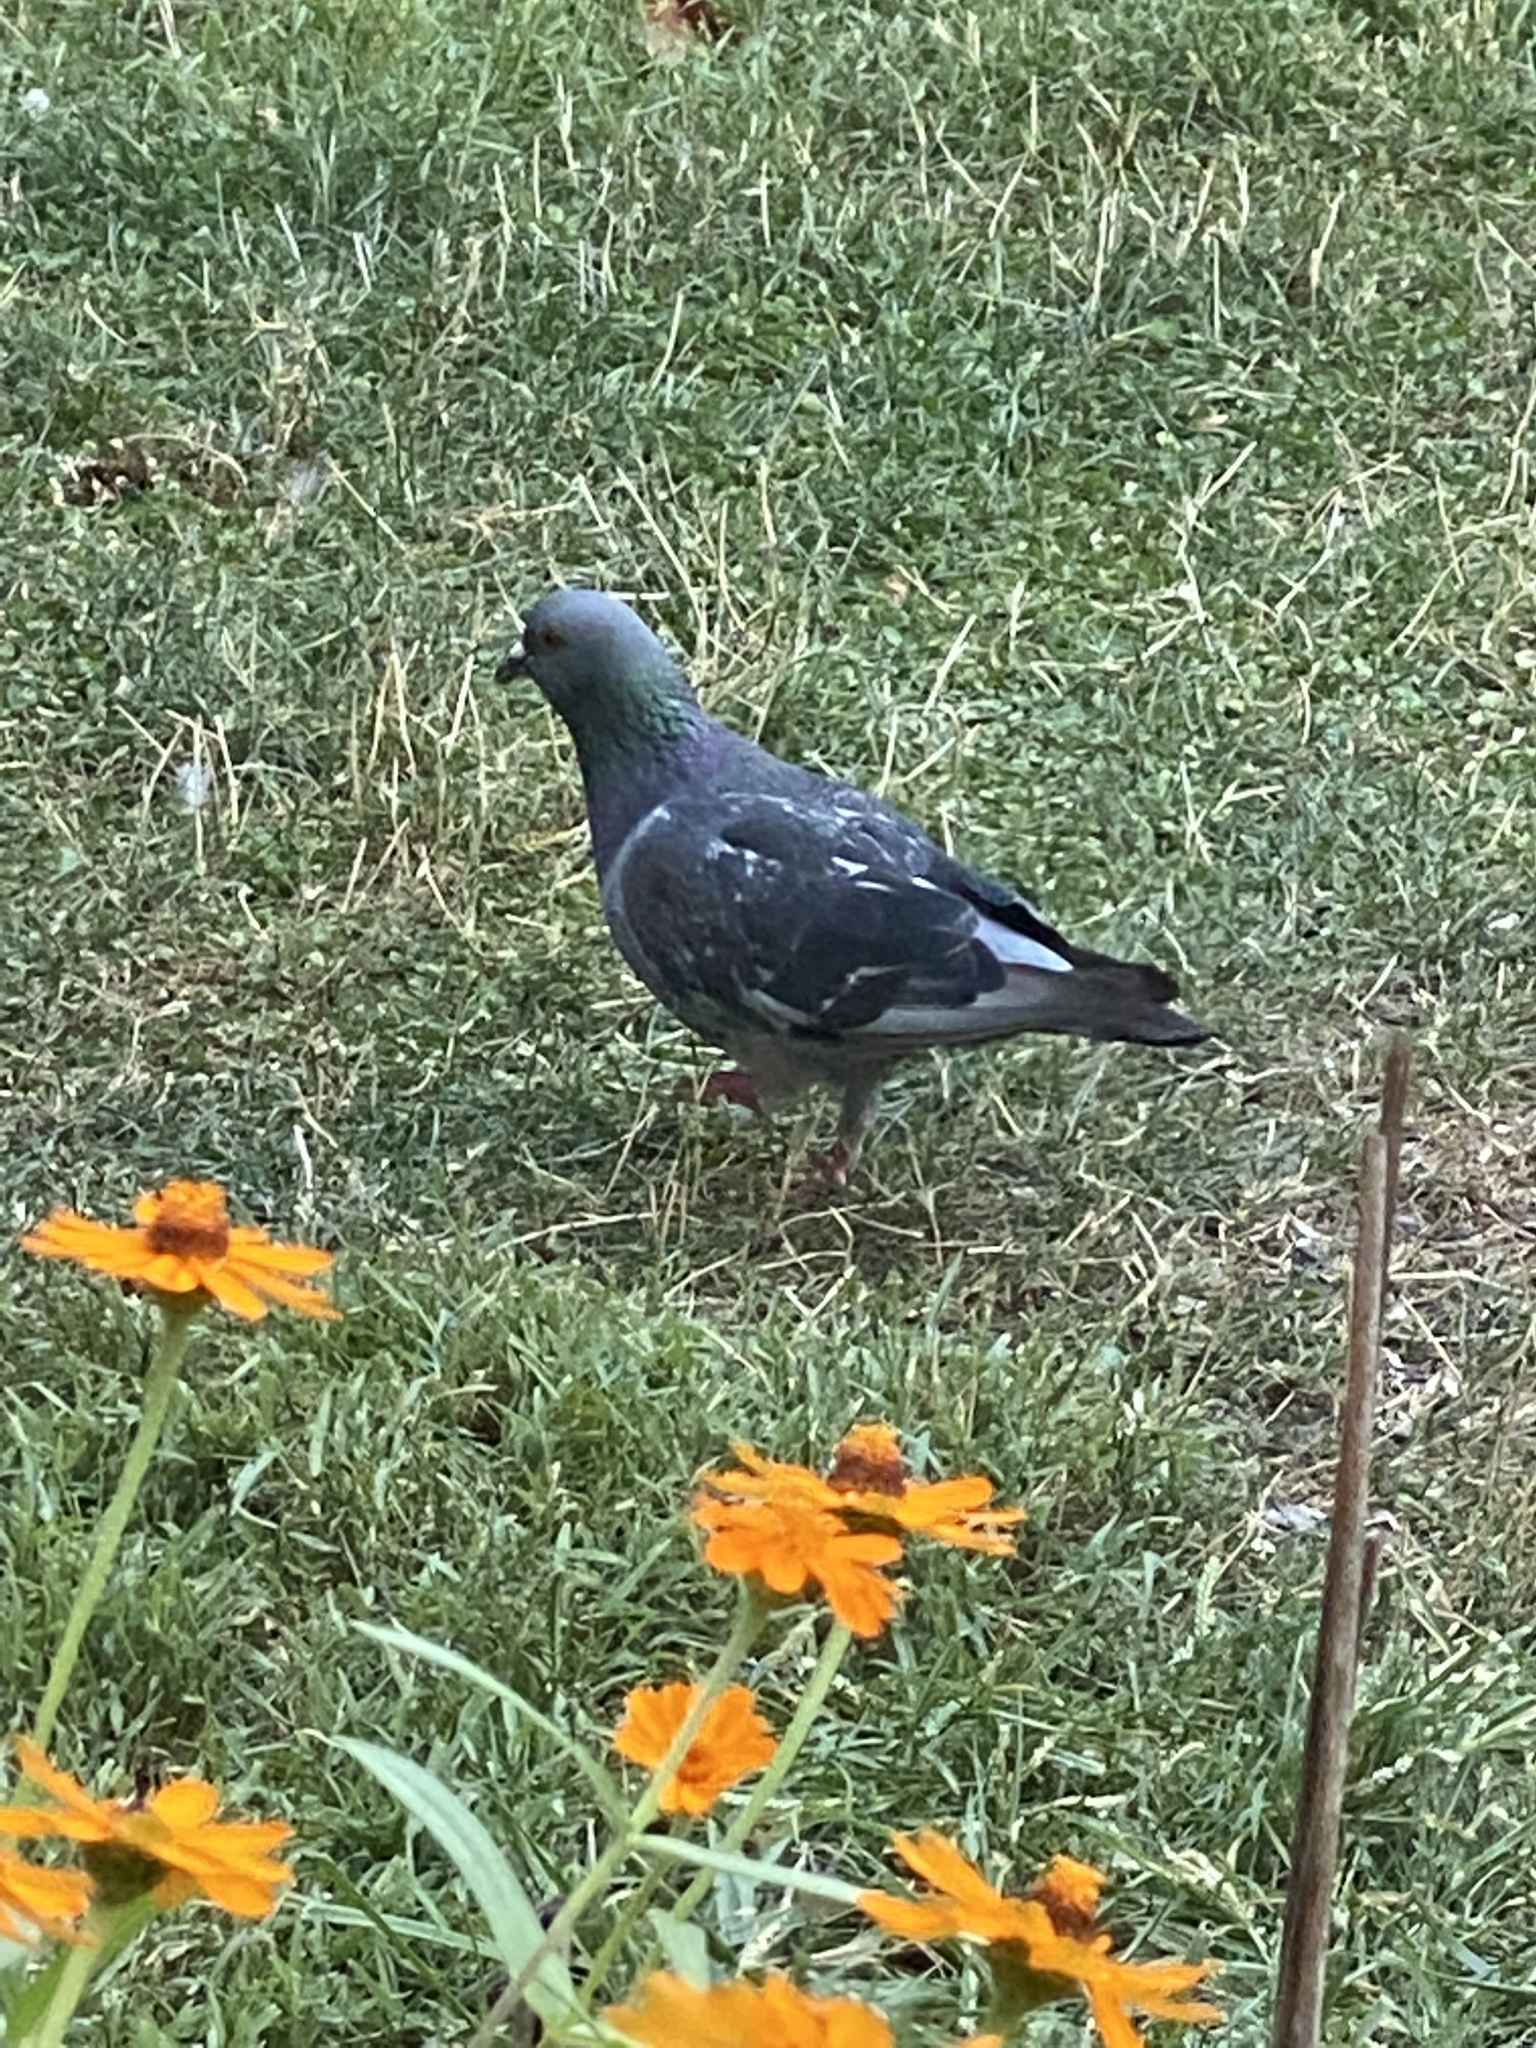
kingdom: Animalia
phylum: Chordata
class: Aves
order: Columbiformes
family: Columbidae
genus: Columba
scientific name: Columba livia
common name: Rock pigeon
